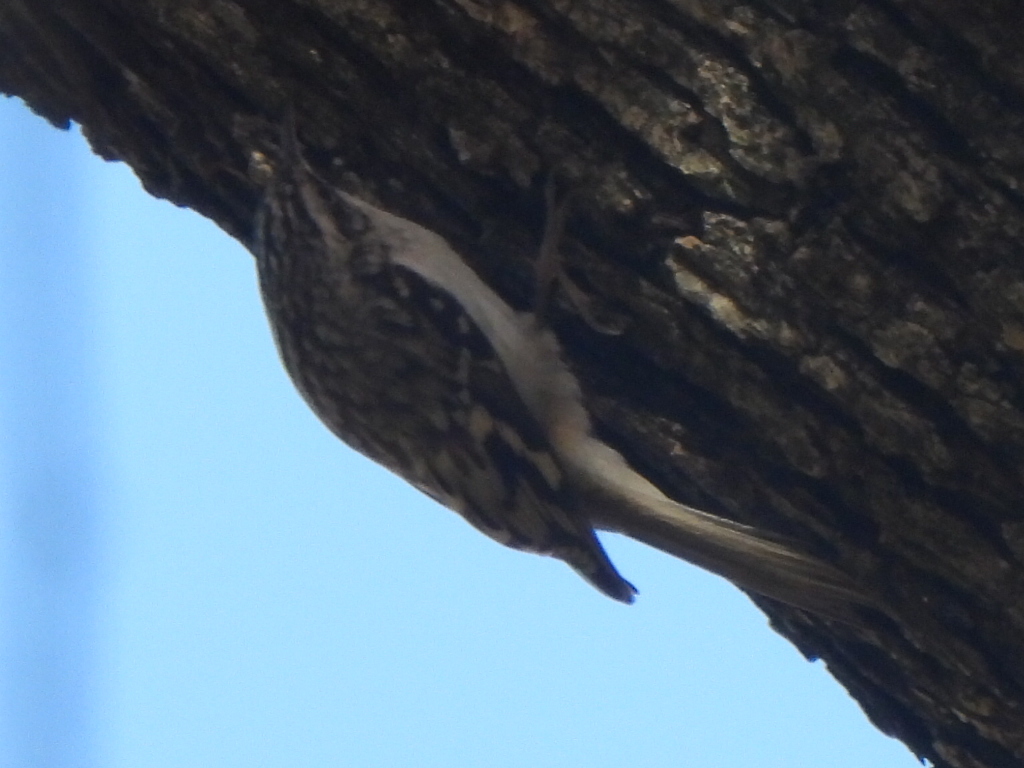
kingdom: Animalia
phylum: Chordata
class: Aves
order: Passeriformes
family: Certhiidae
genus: Certhia
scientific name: Certhia americana
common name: Brown creeper
